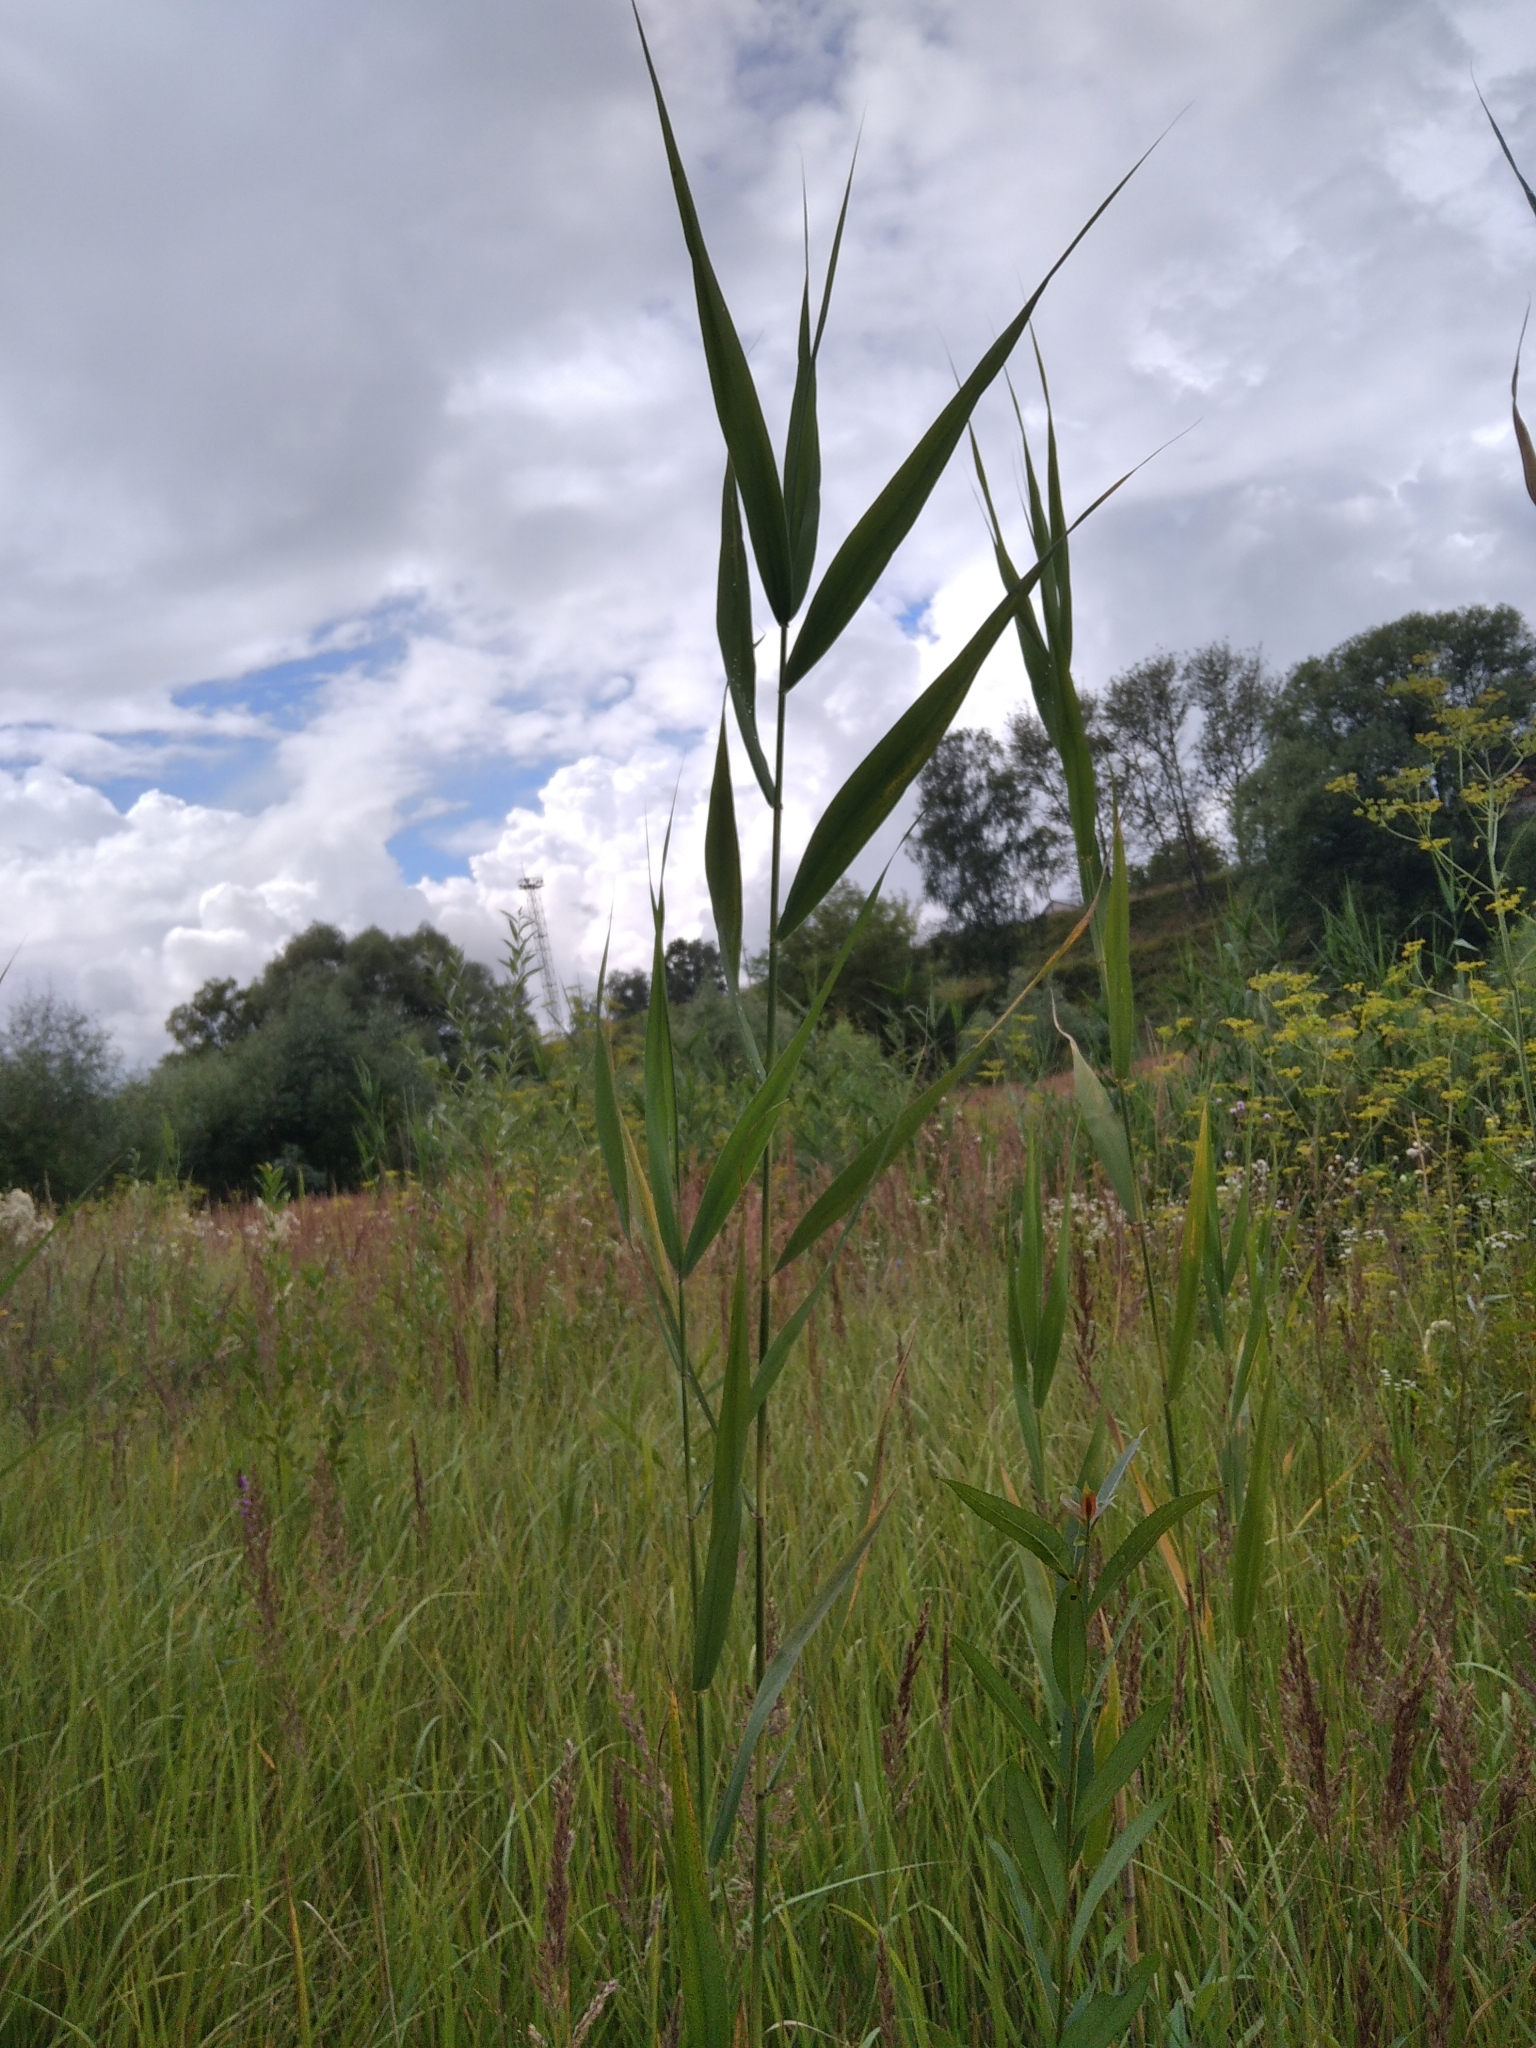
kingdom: Plantae
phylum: Tracheophyta
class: Liliopsida
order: Poales
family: Poaceae
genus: Phragmites
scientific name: Phragmites australis
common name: Common reed
